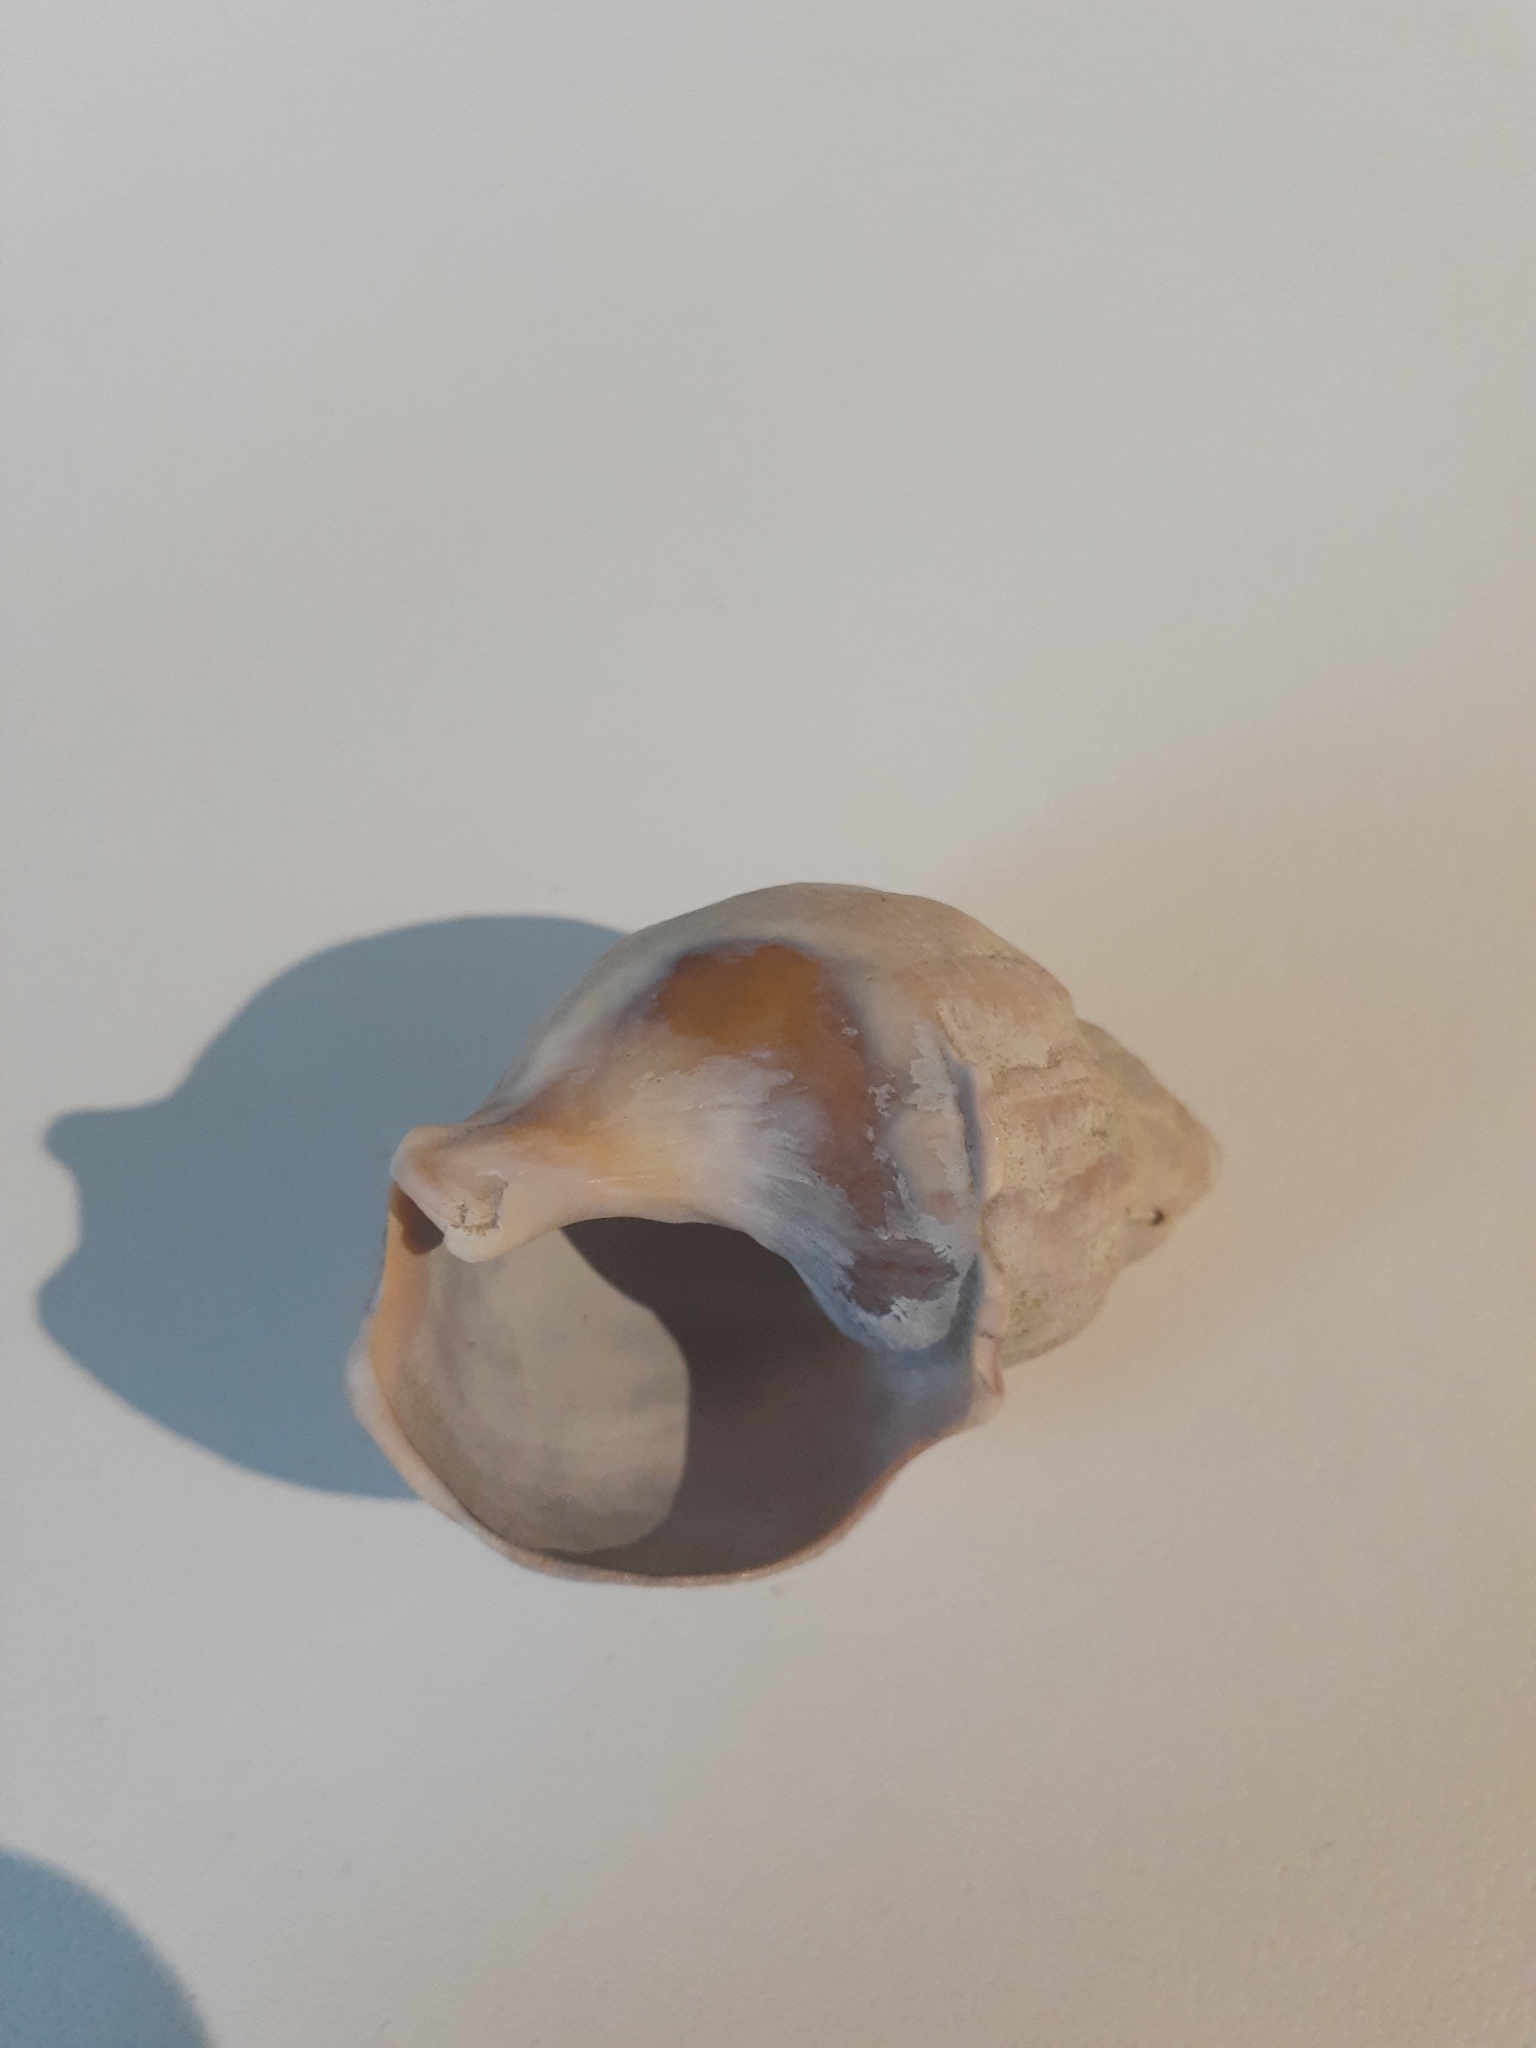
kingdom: Animalia
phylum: Mollusca
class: Gastropoda
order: Neogastropoda
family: Buccinidae
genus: Buccinum
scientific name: Buccinum undatum
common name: Common whelk
